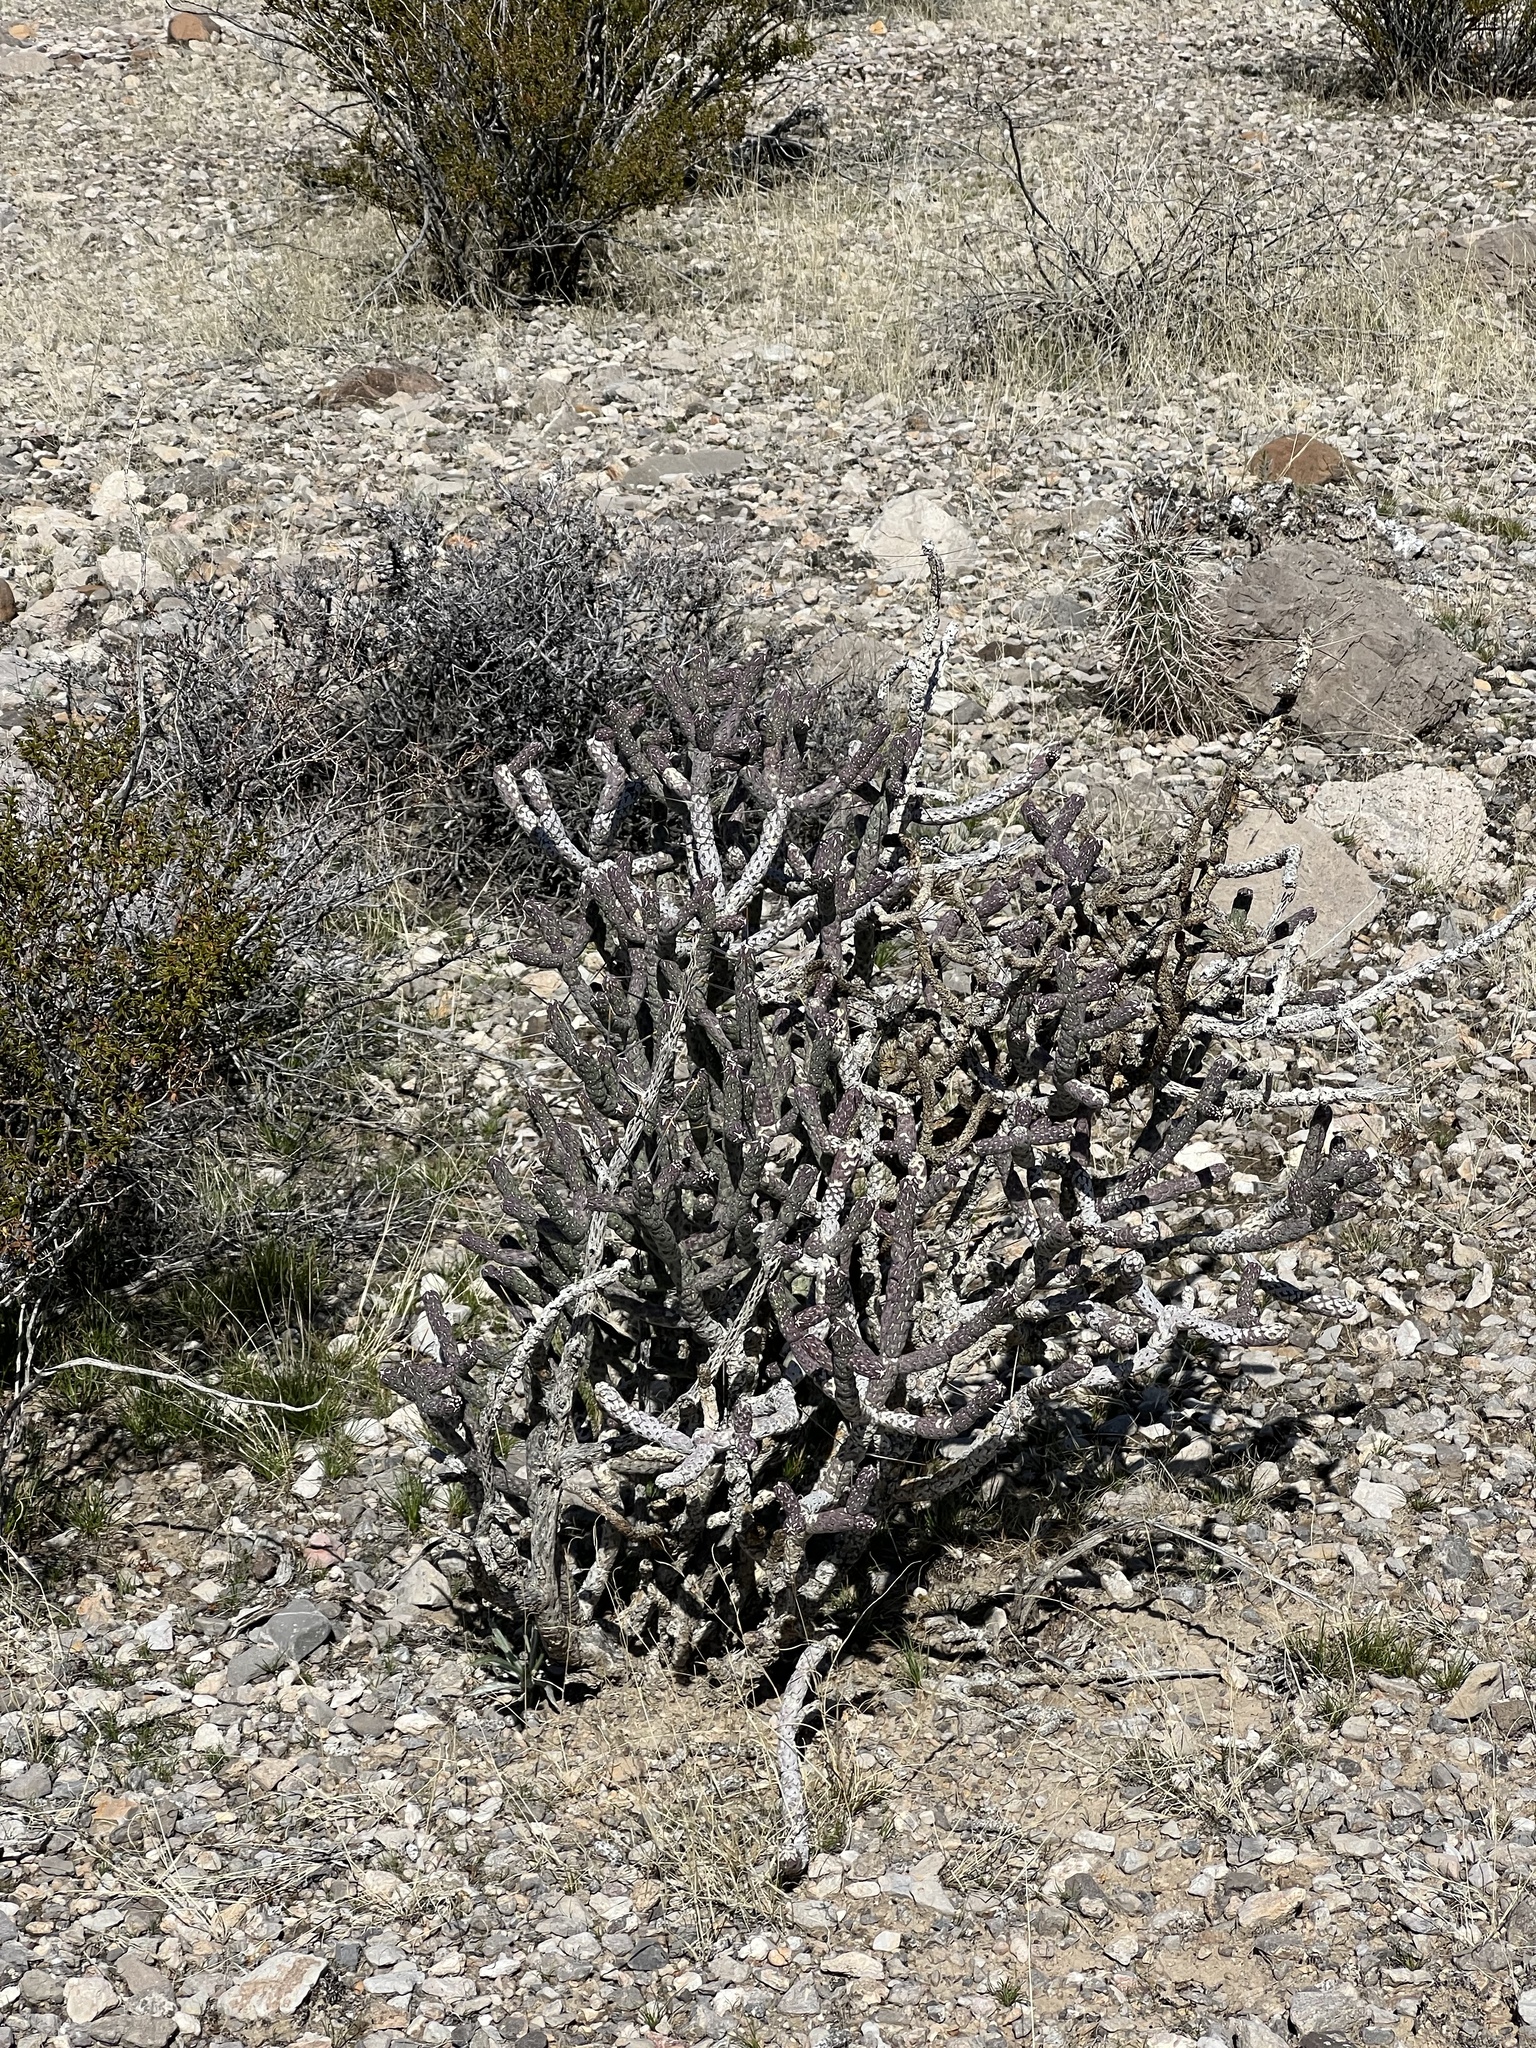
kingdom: Plantae
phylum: Tracheophyta
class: Magnoliopsida
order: Caryophyllales
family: Cactaceae
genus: Cylindropuntia
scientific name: Cylindropuntia ramosissima
